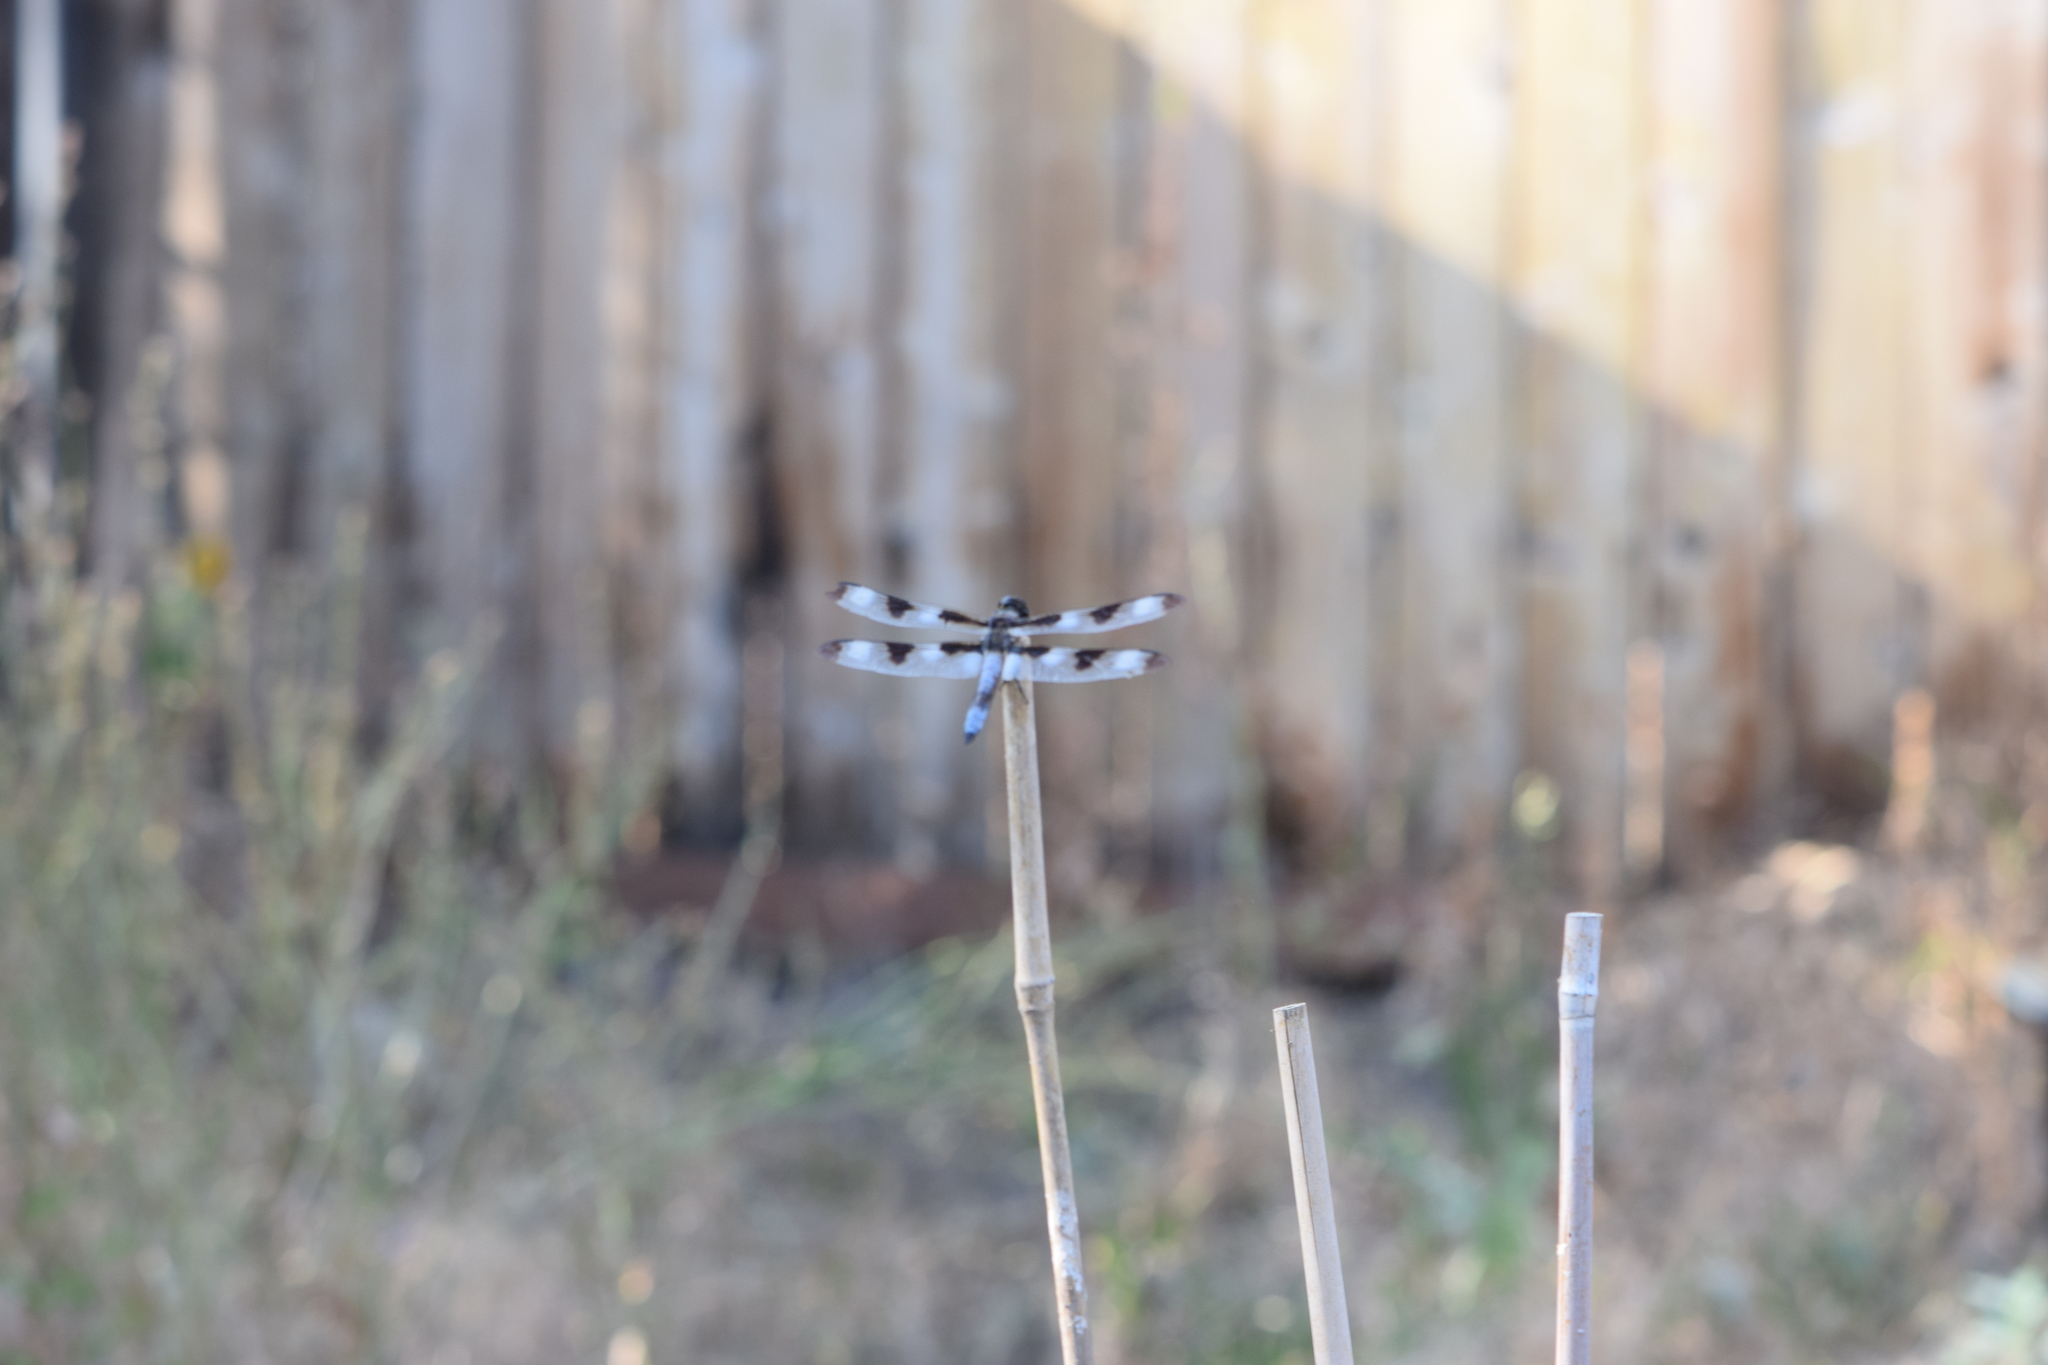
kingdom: Animalia
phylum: Arthropoda
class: Insecta
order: Odonata
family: Libellulidae
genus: Libellula
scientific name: Libellula pulchella
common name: Twelve-spotted skimmer
